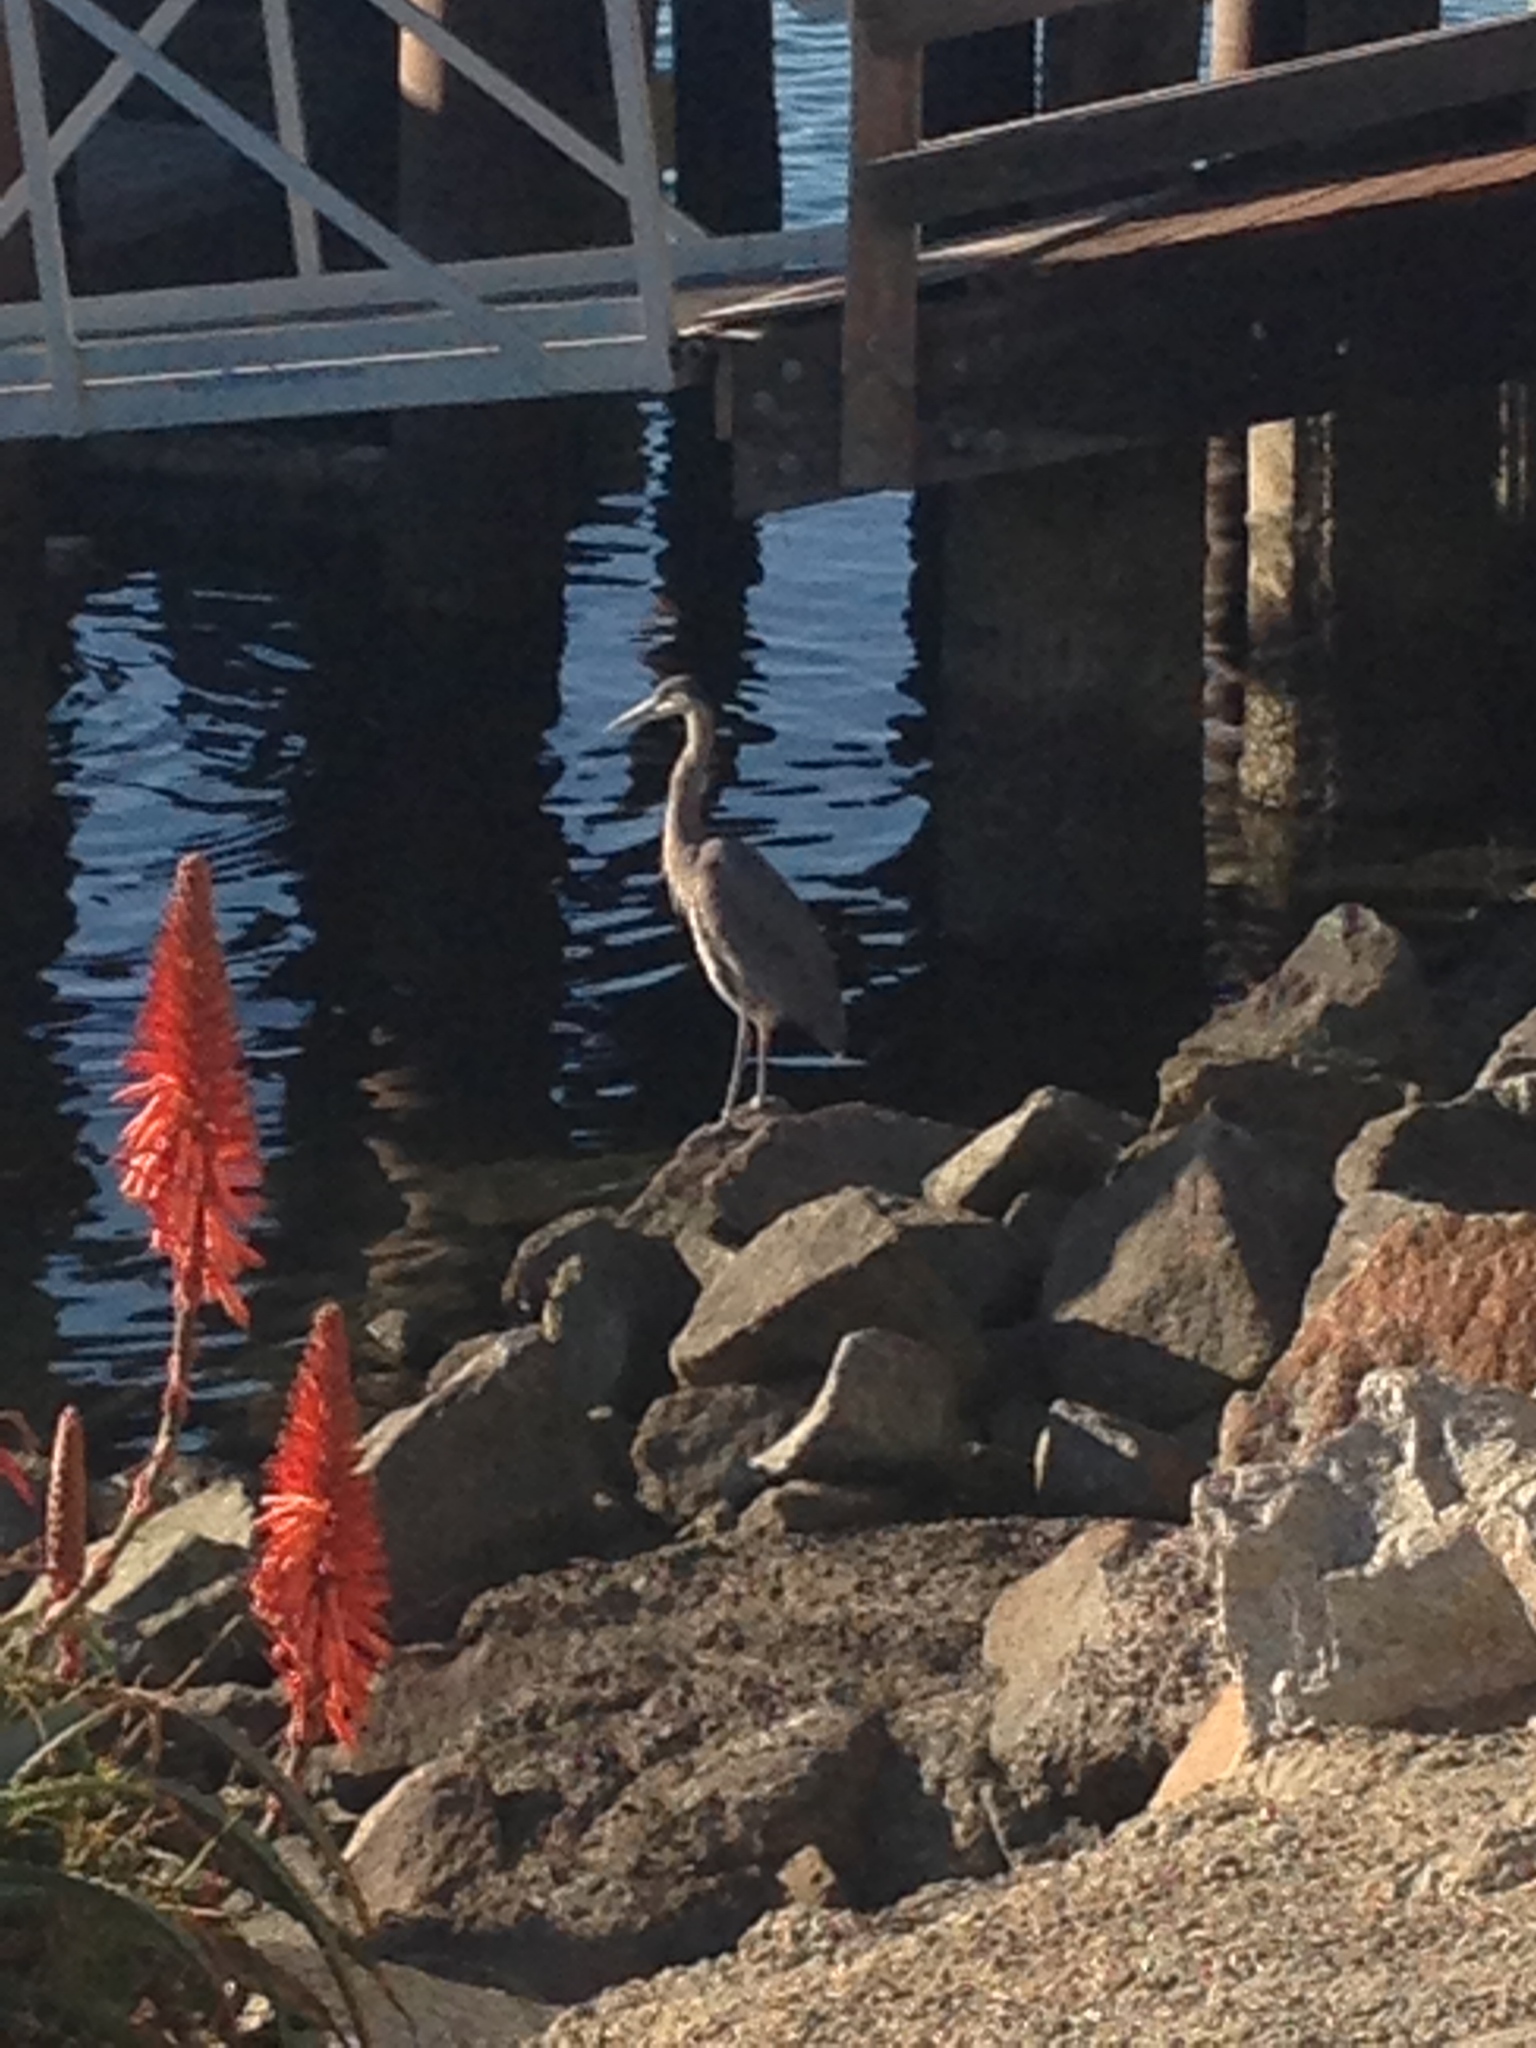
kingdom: Animalia
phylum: Chordata
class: Aves
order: Pelecaniformes
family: Ardeidae
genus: Ardea
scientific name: Ardea herodias
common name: Great blue heron
